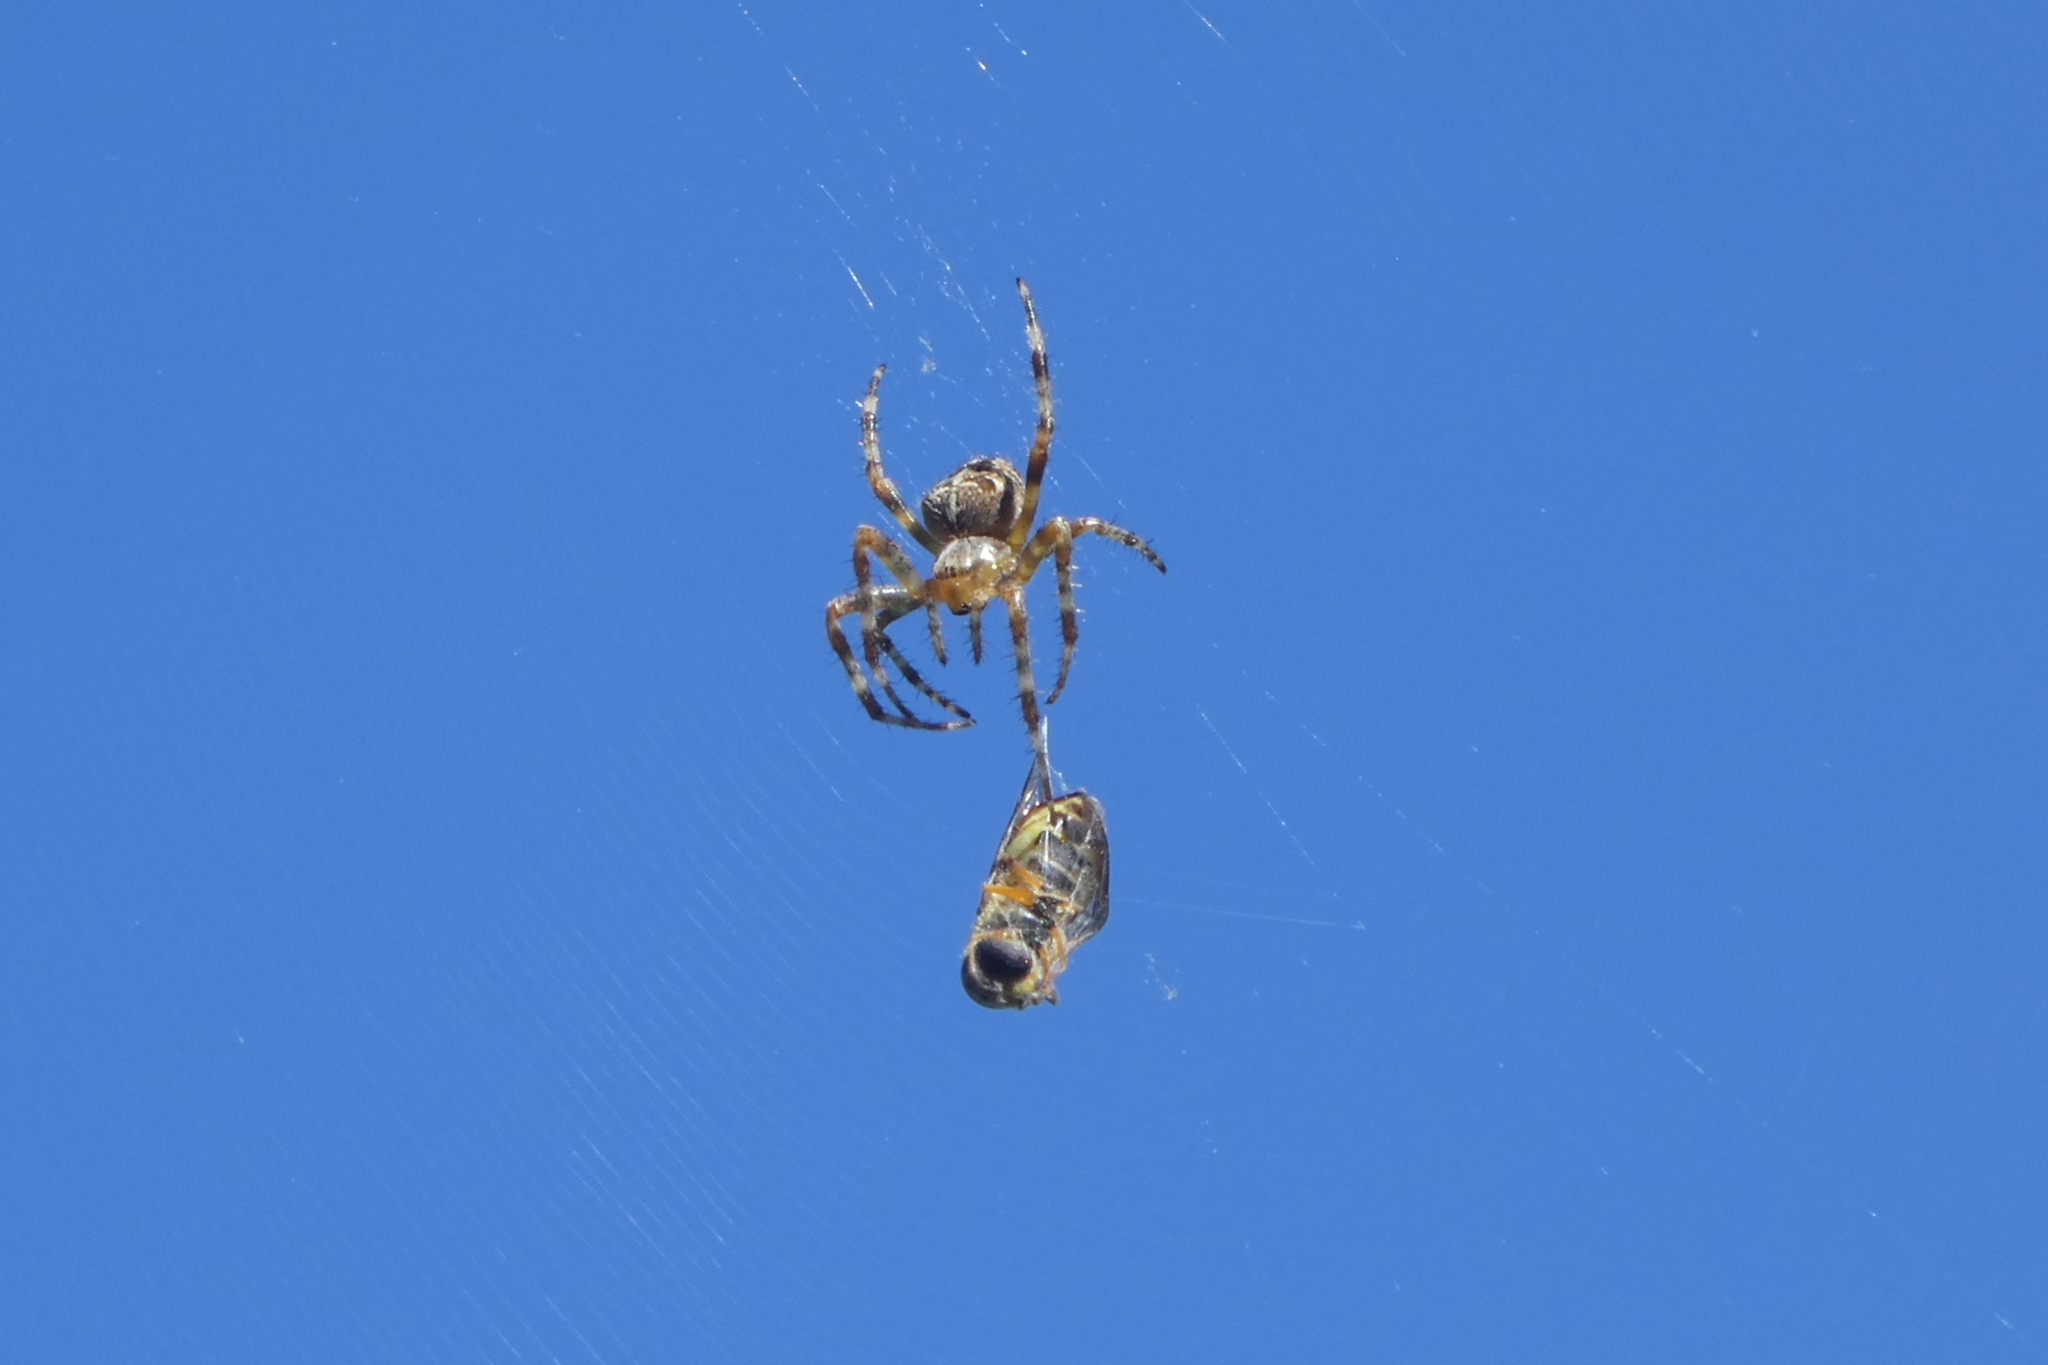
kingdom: Animalia
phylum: Arthropoda
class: Arachnida
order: Araneae
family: Araneidae
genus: Araneus
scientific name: Araneus diadematus
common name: Cross orbweaver
